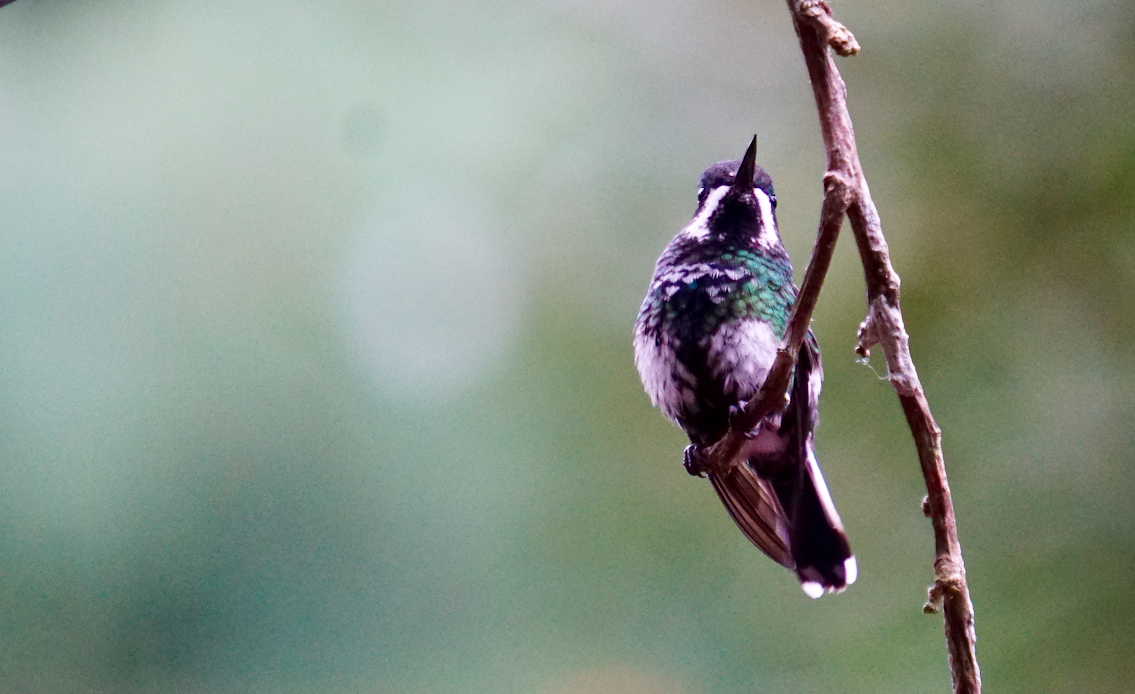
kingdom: Animalia
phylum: Chordata
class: Aves
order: Apodiformes
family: Trochilidae
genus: Discosura
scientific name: Discosura conversii
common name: Green thorntail
